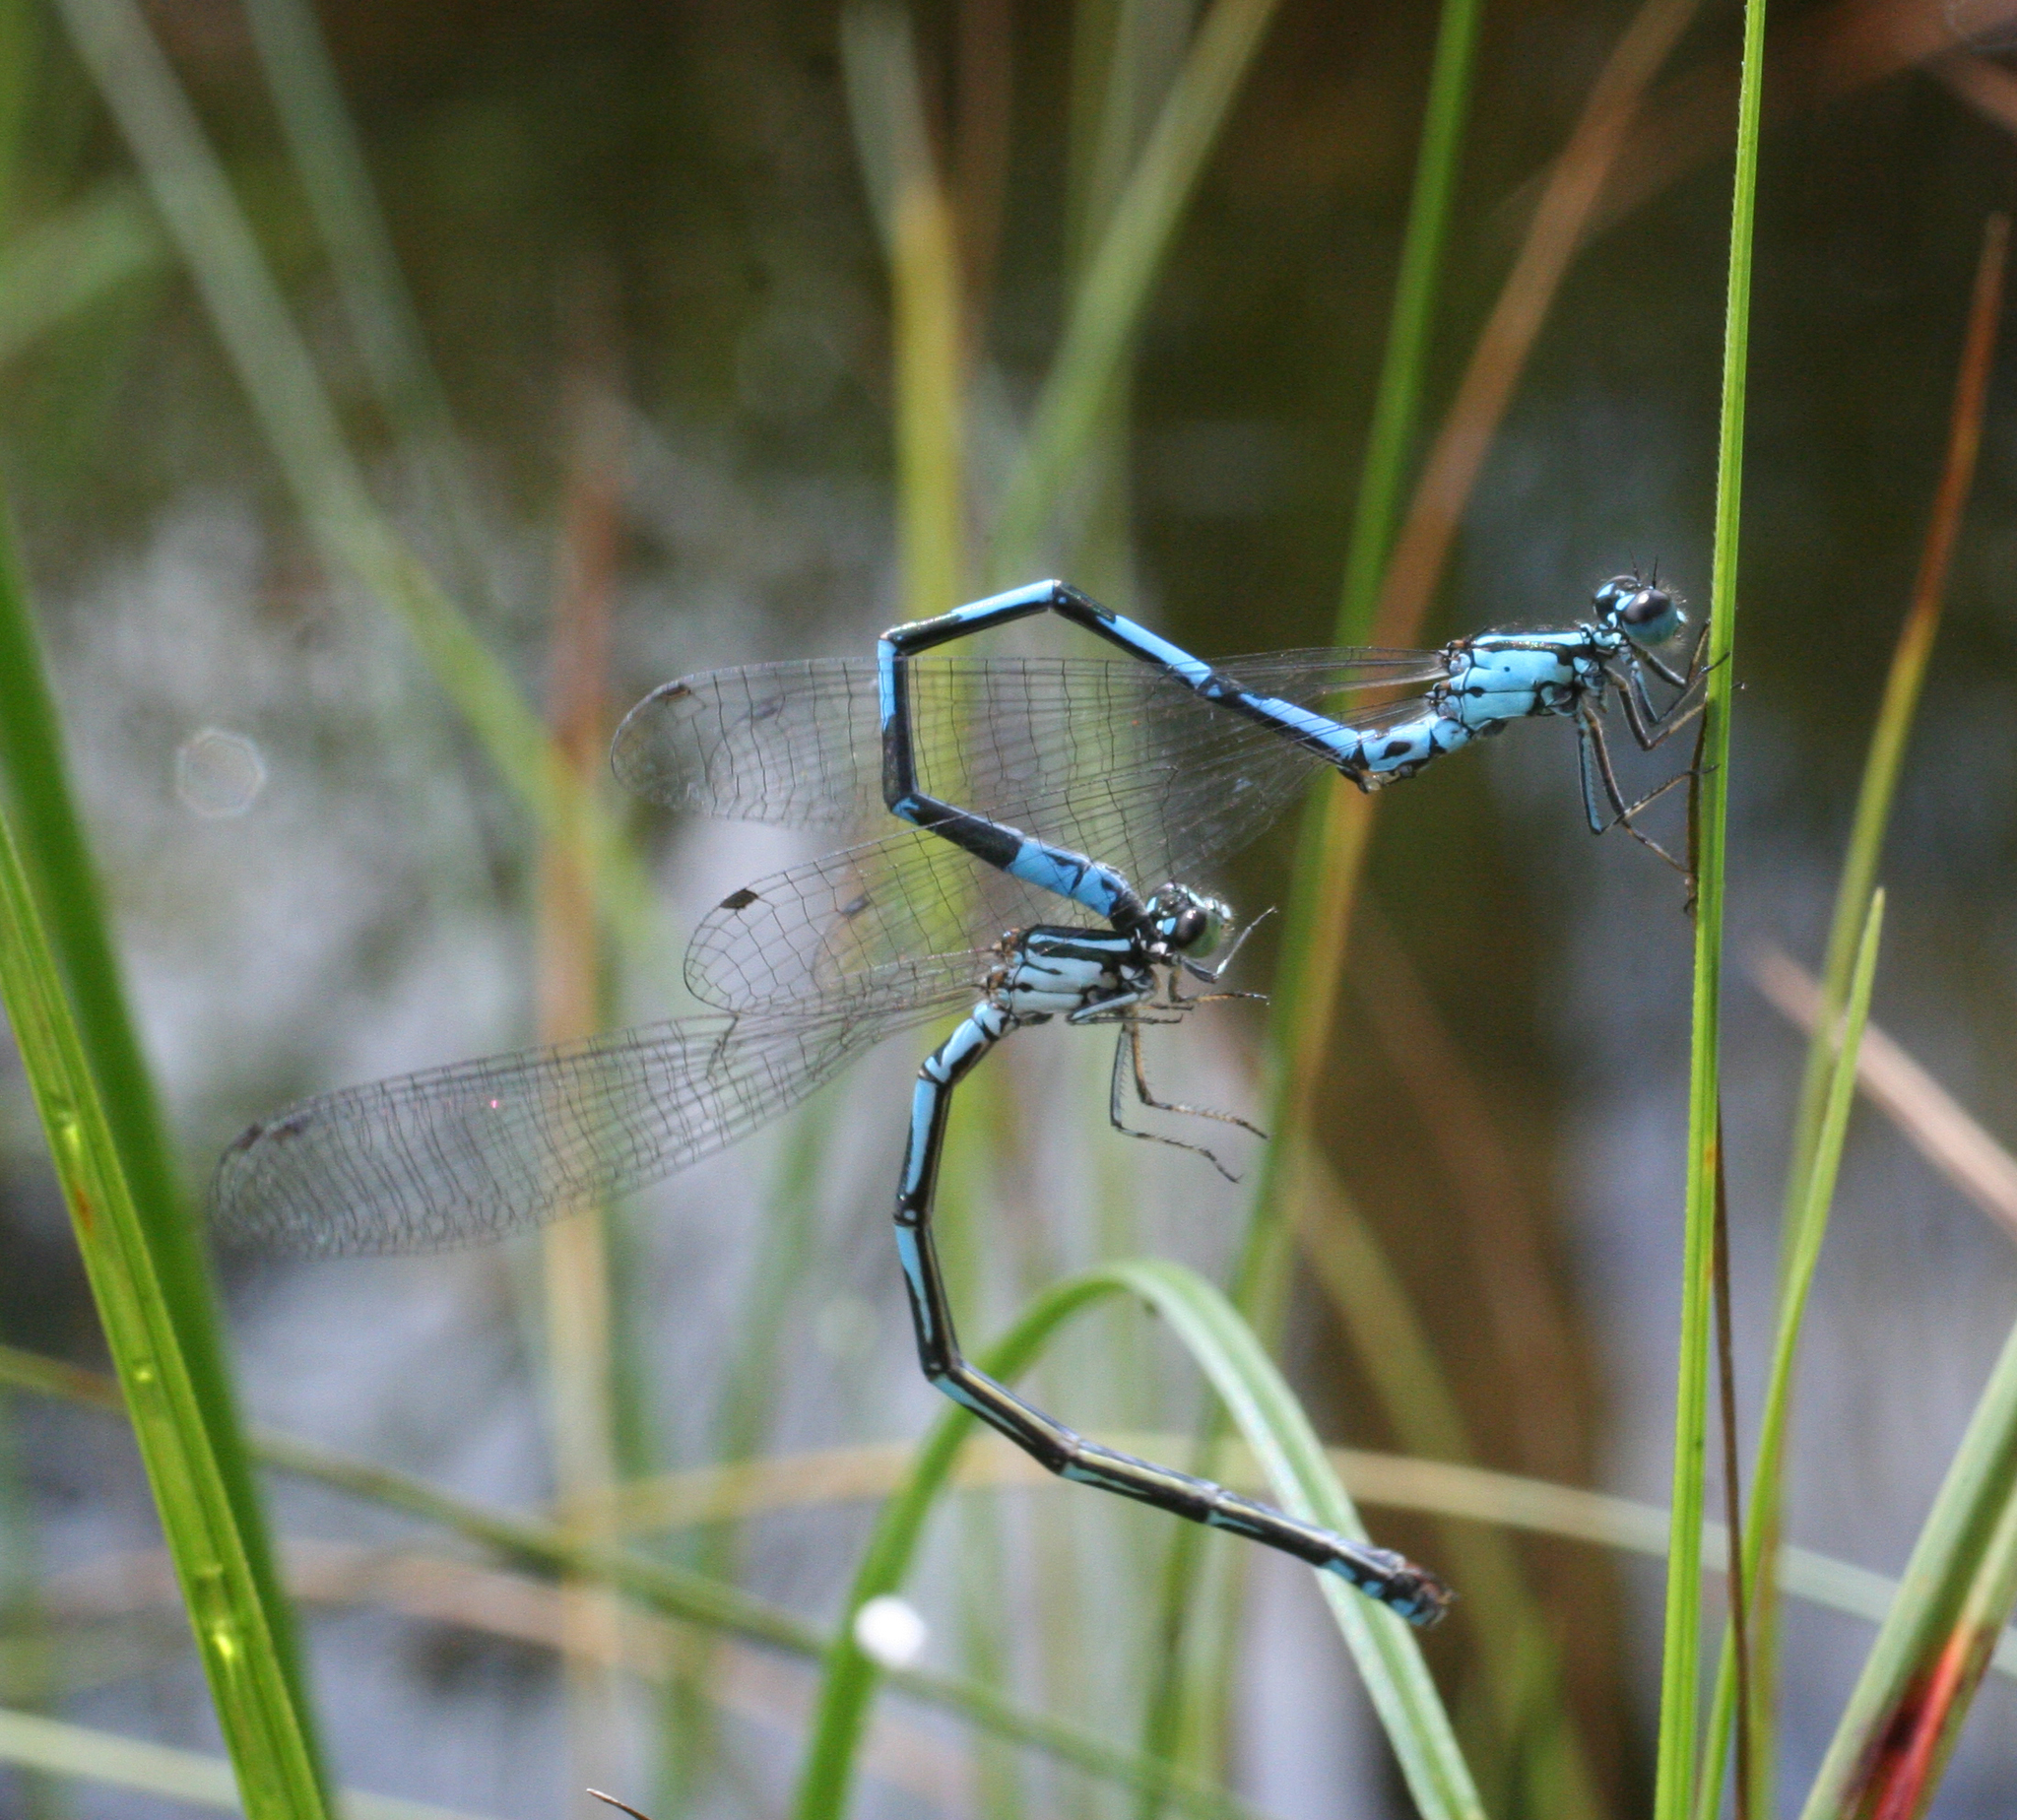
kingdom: Animalia
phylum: Arthropoda
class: Insecta
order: Odonata
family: Coenagrionidae
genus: Coenagrion
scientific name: Coenagrion johanssoni
